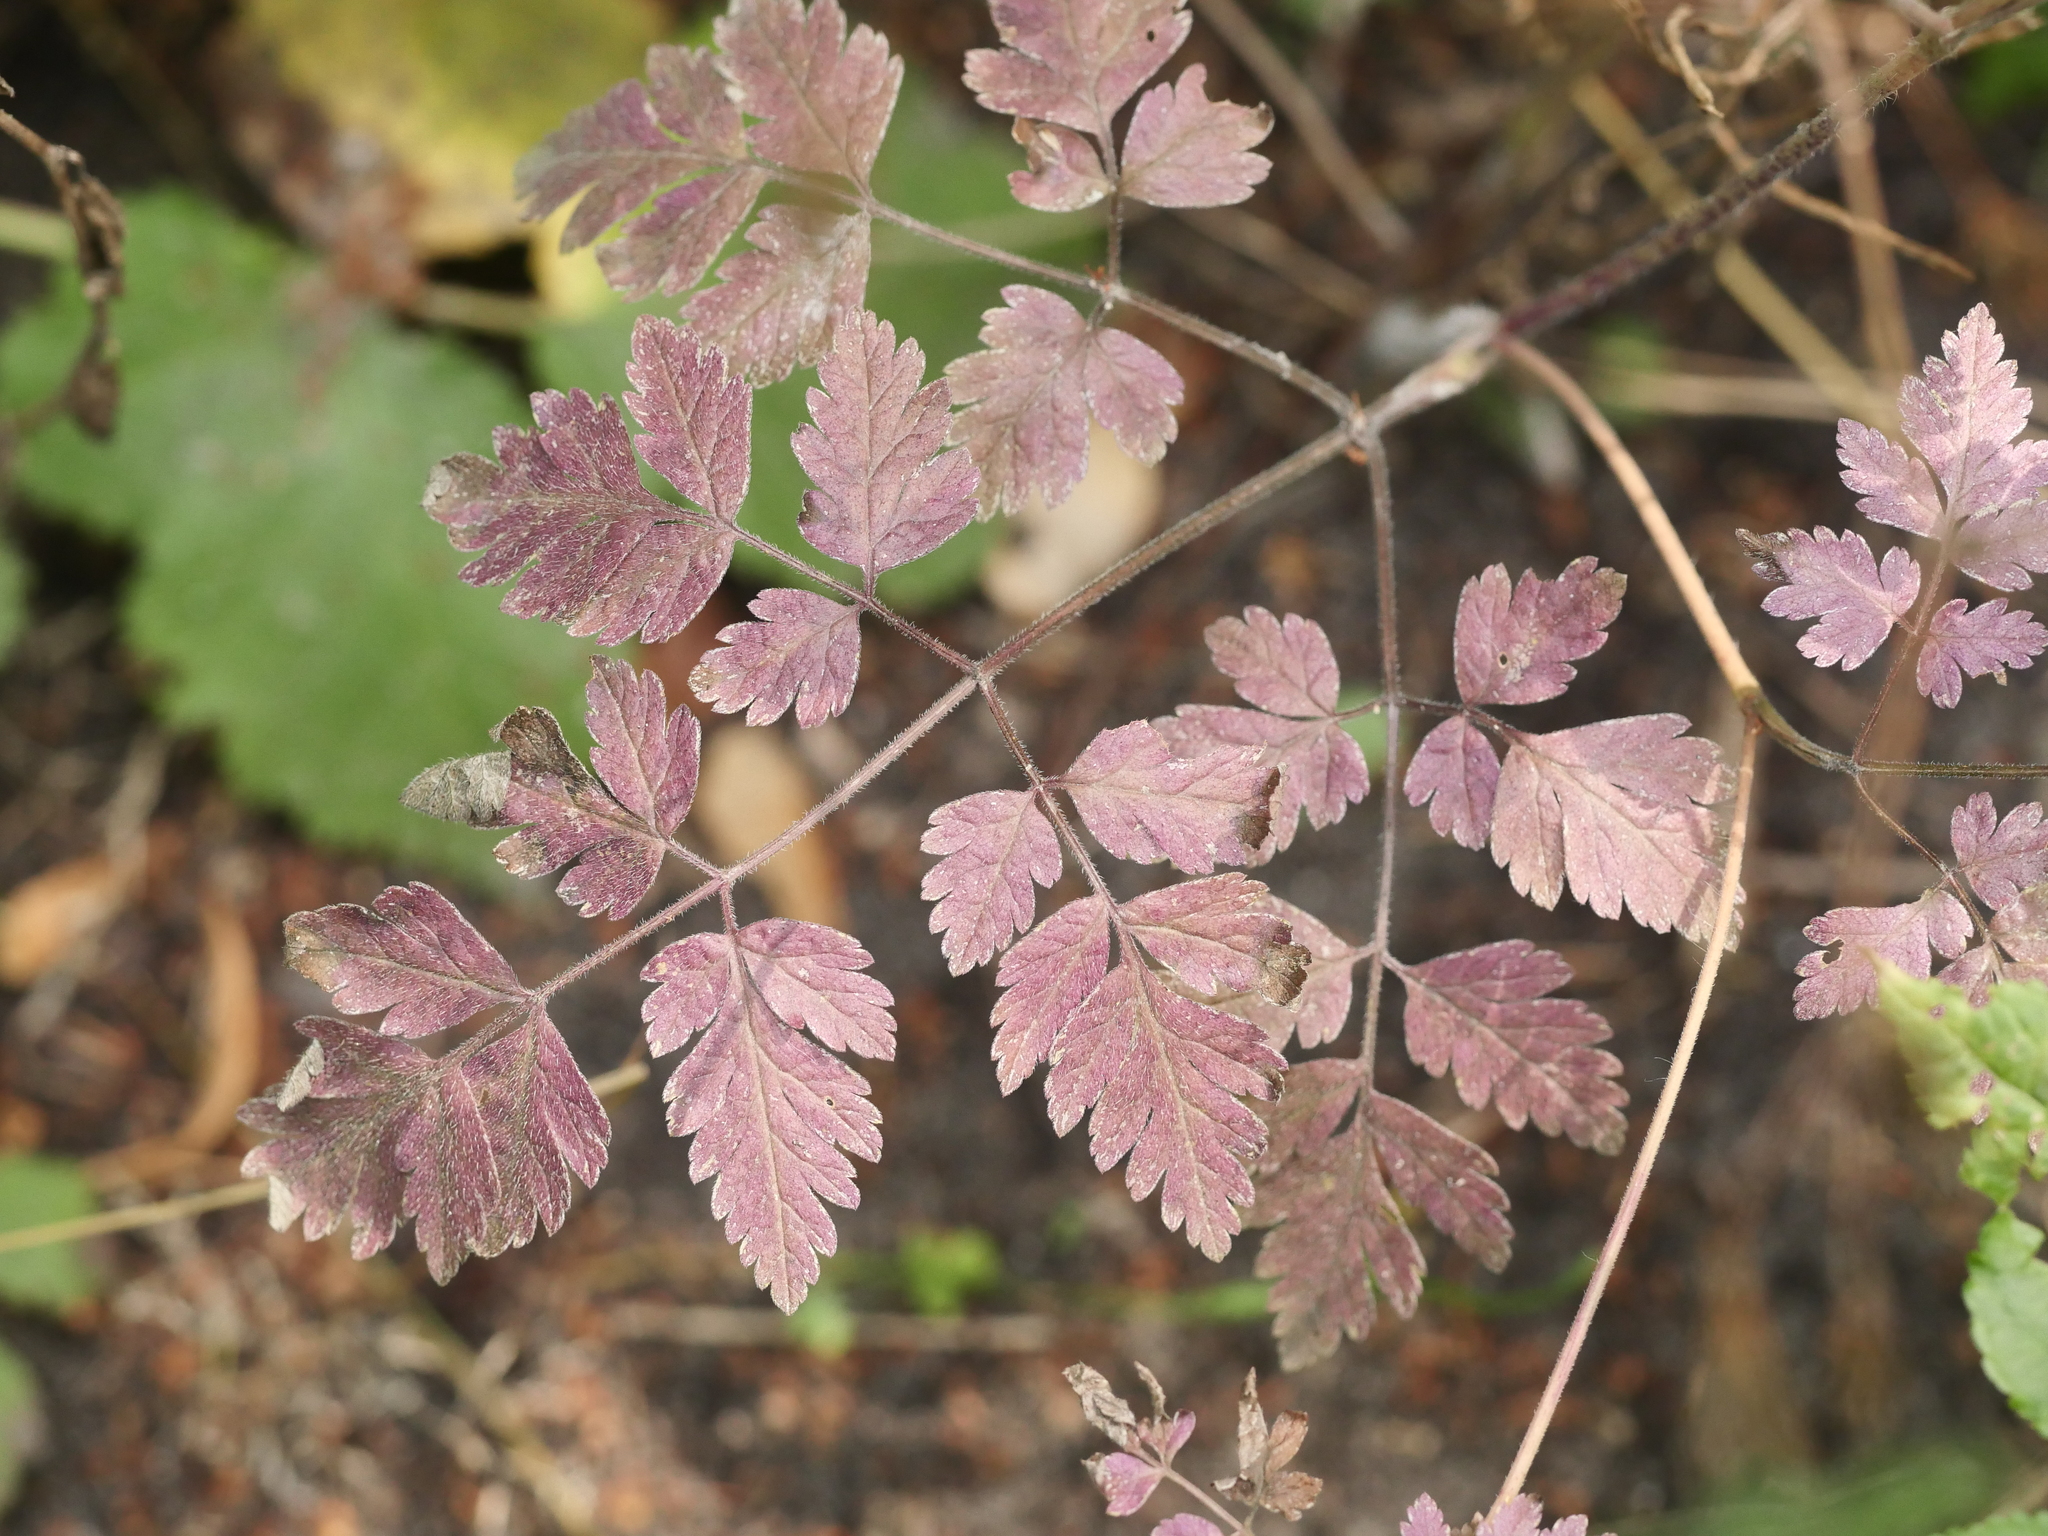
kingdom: Plantae
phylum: Tracheophyta
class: Magnoliopsida
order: Apiales
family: Apiaceae
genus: Chaerophyllum
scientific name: Chaerophyllum temulum
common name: Rough chervil
